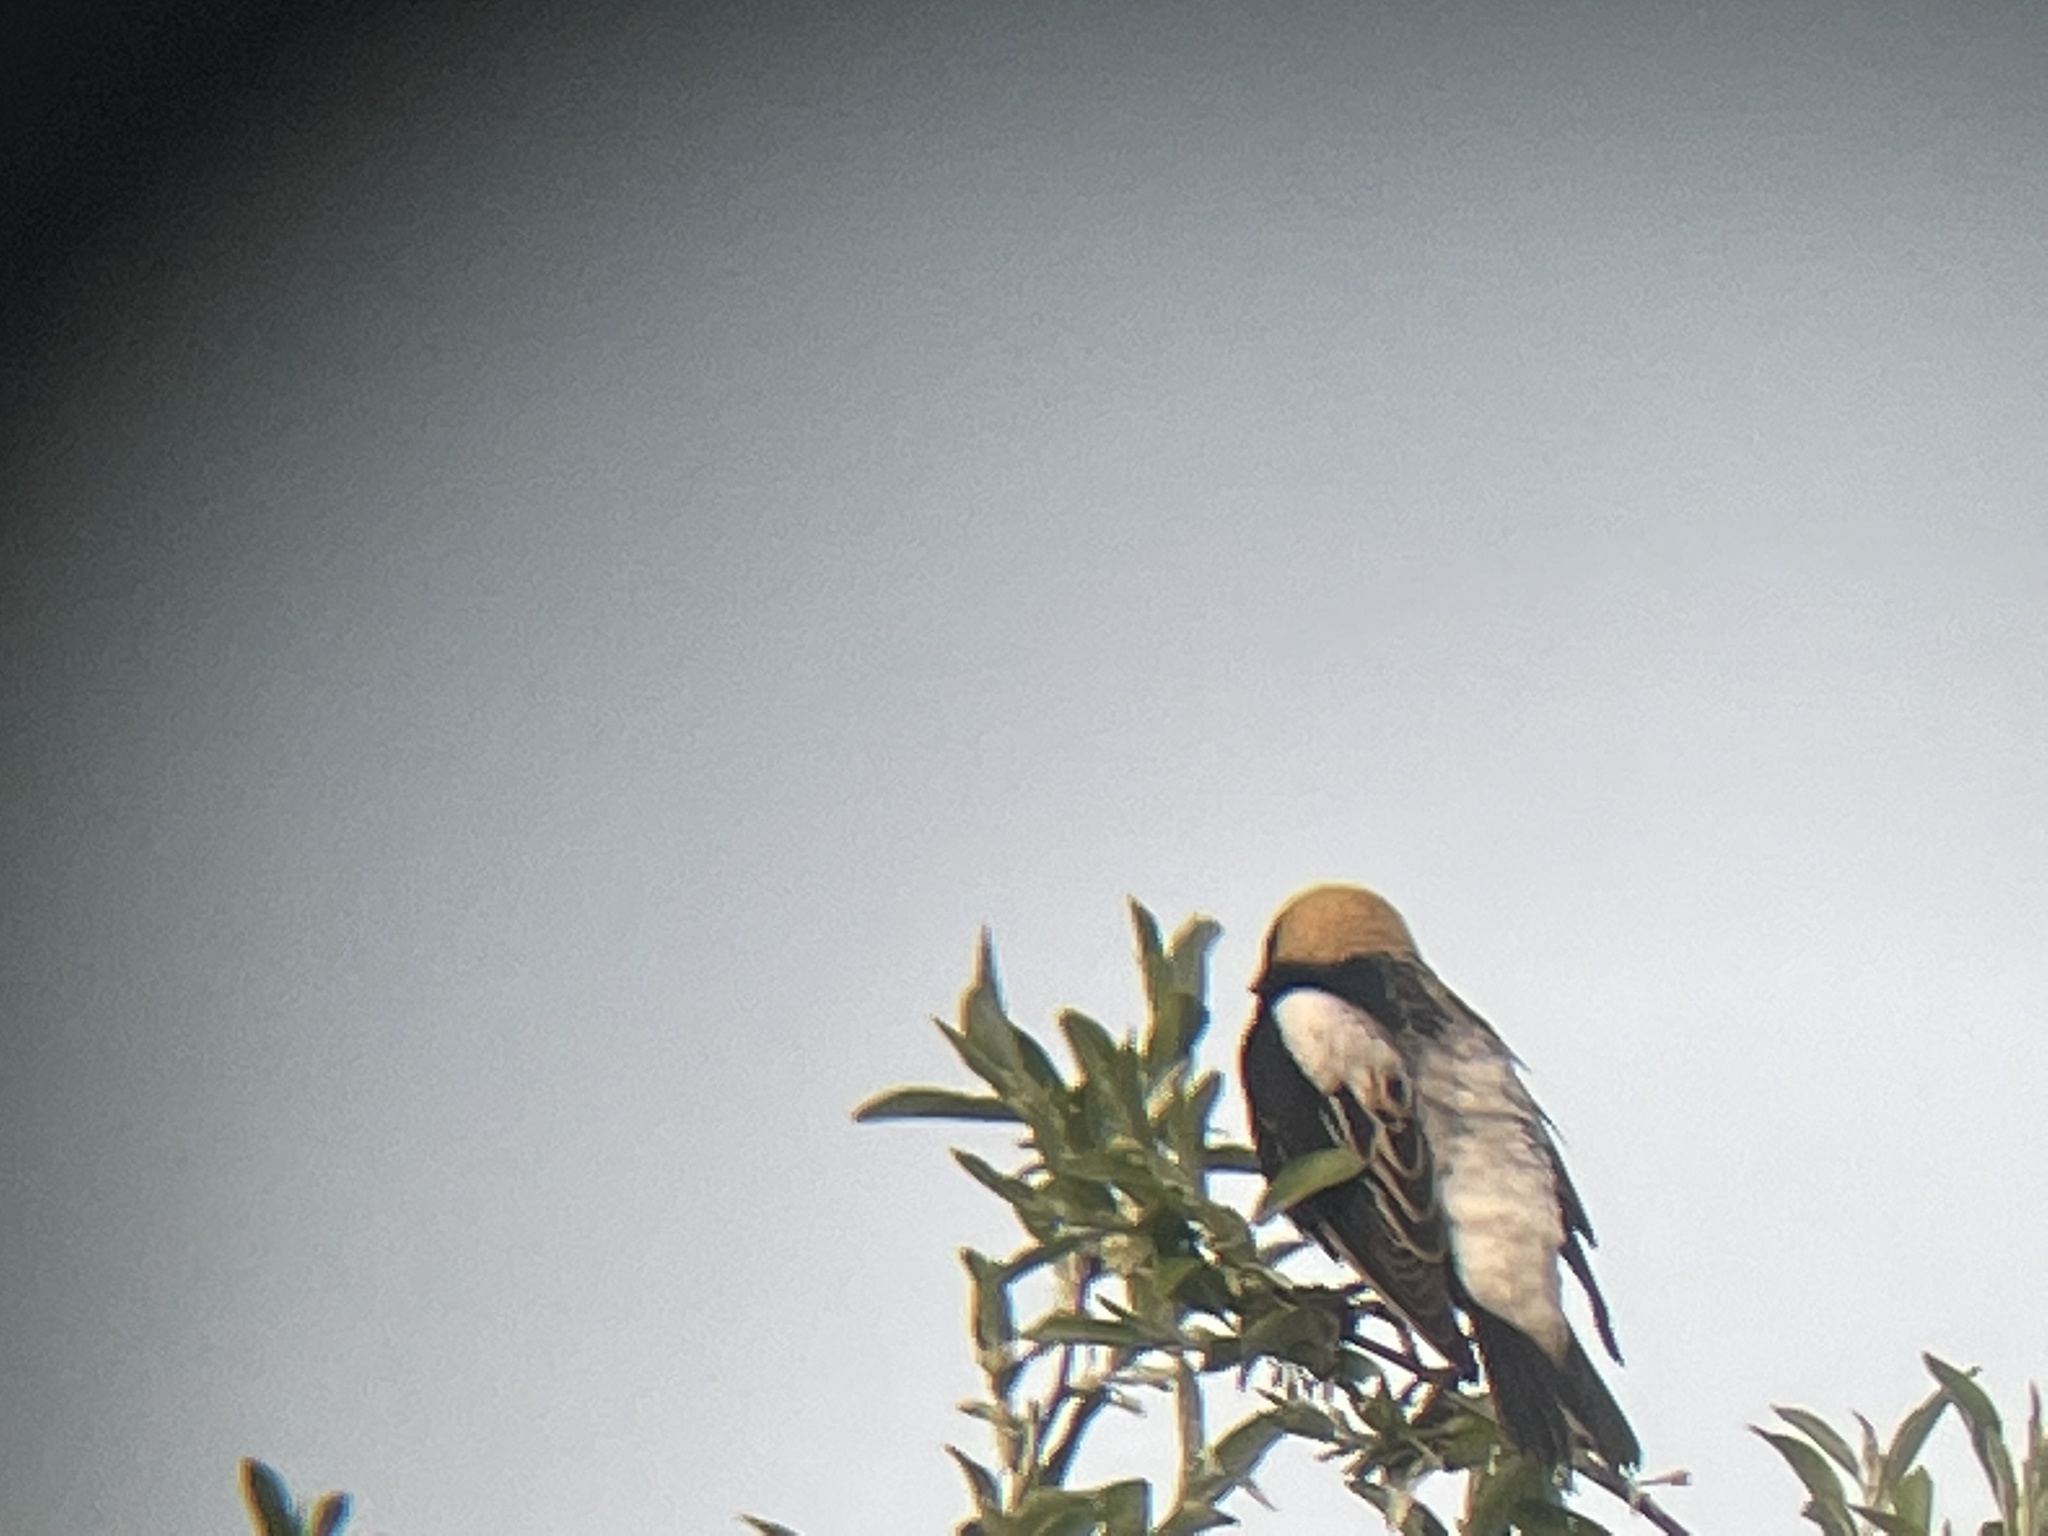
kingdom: Animalia
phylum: Chordata
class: Aves
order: Passeriformes
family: Icteridae
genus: Dolichonyx
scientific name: Dolichonyx oryzivorus
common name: Bobolink
